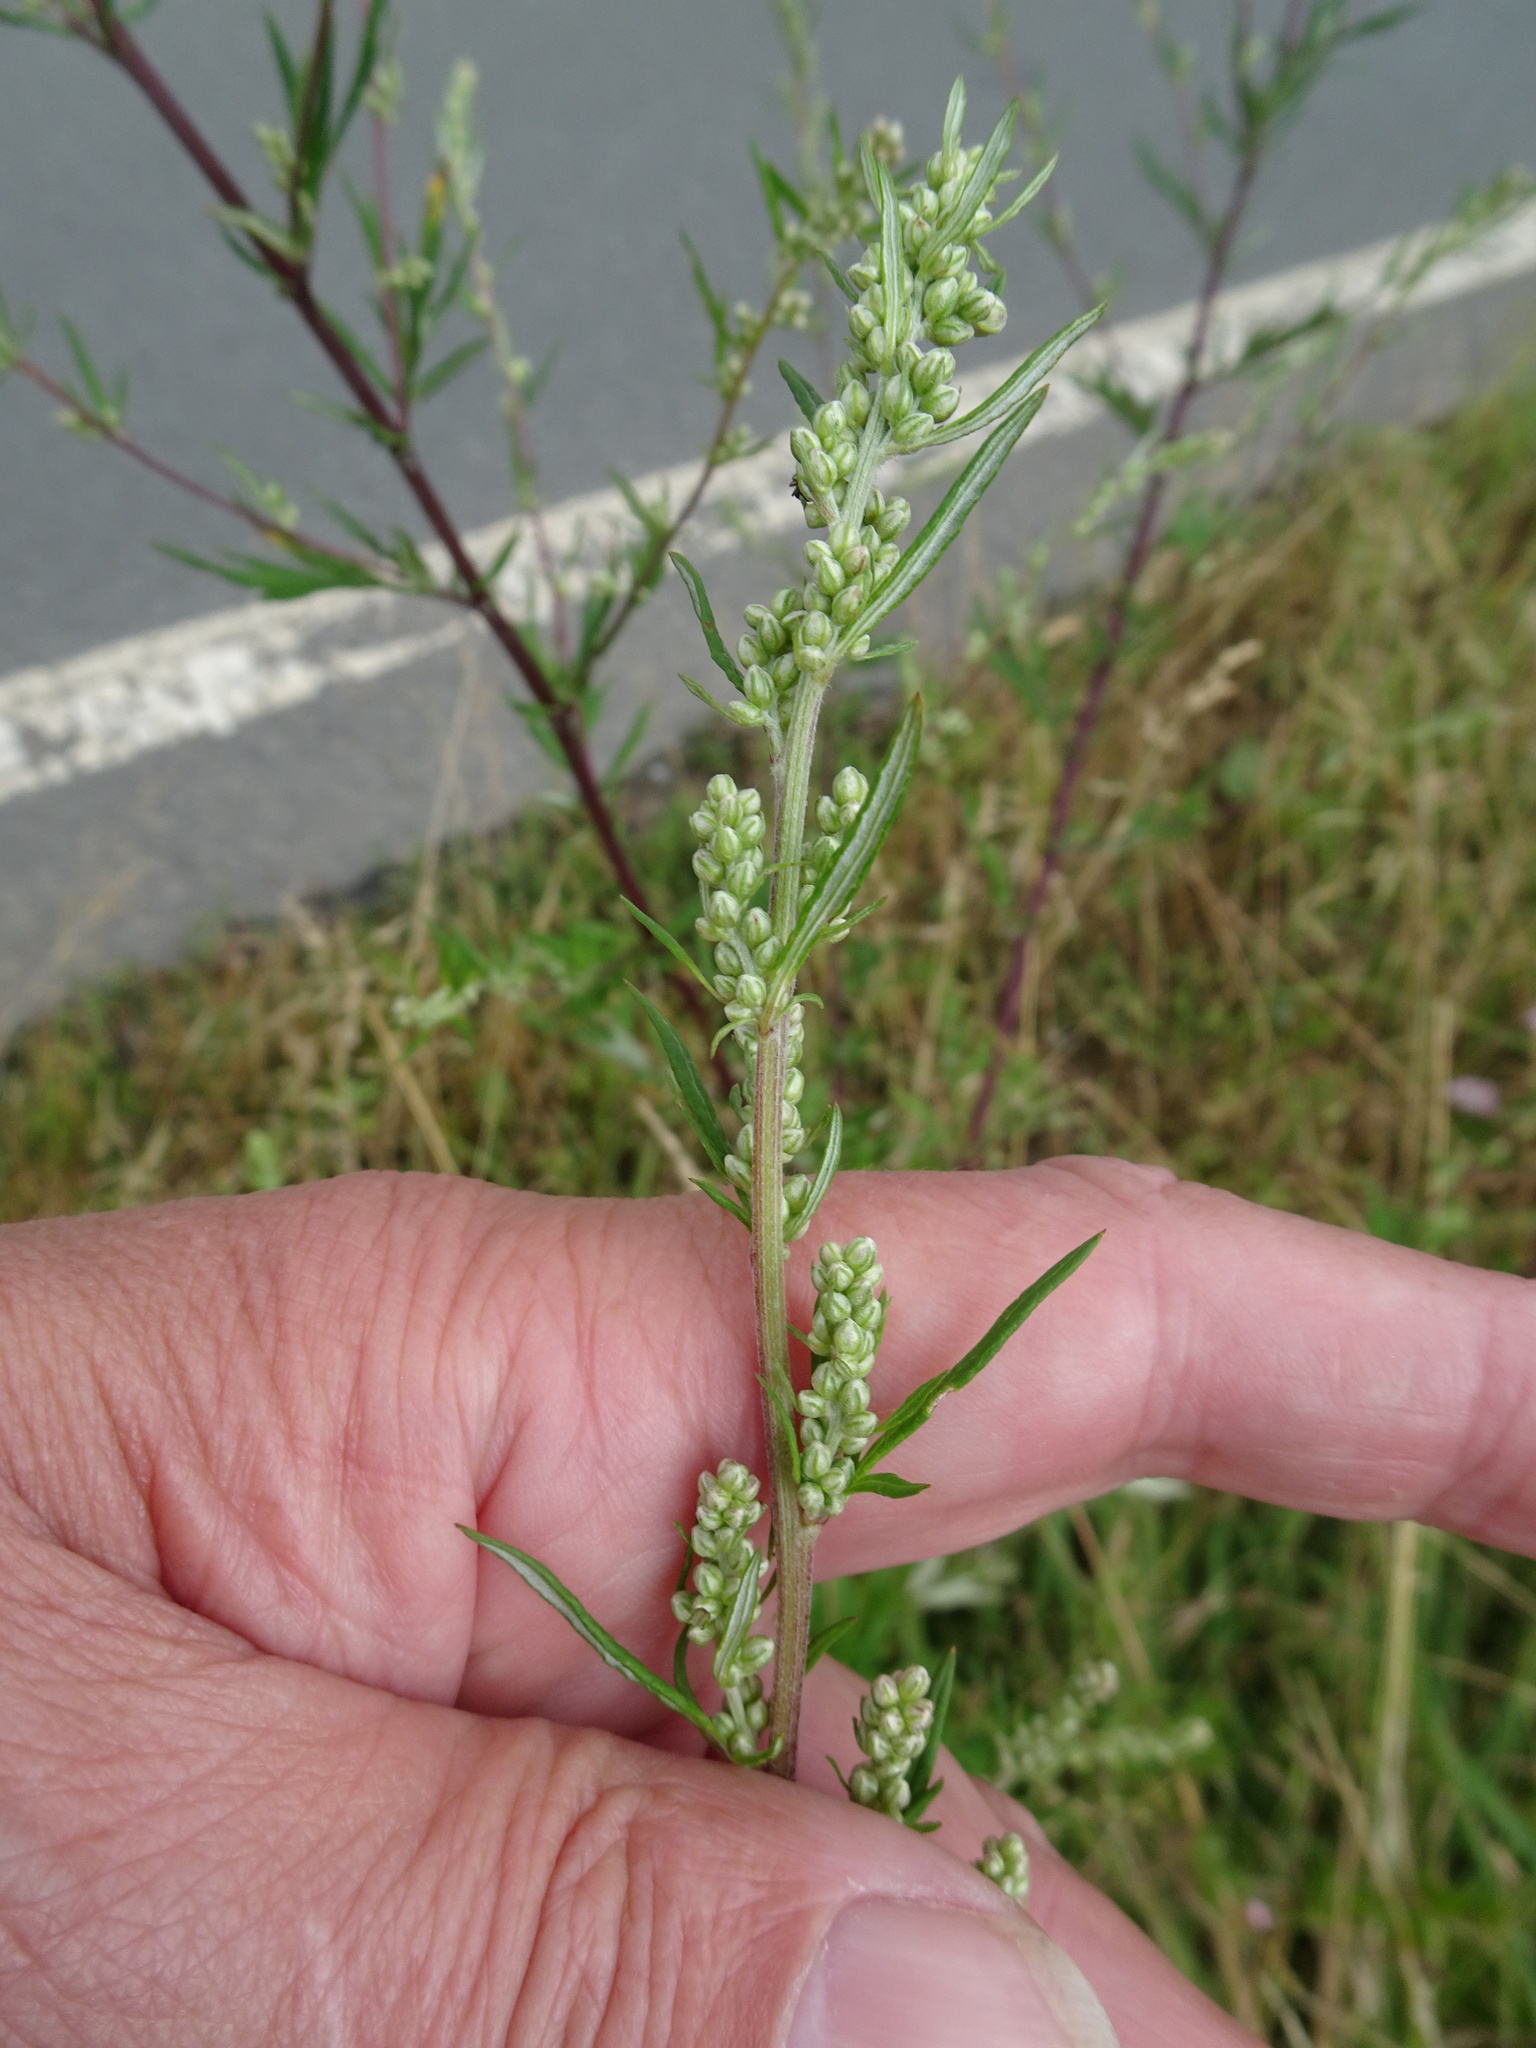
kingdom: Plantae
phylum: Tracheophyta
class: Magnoliopsida
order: Asterales
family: Asteraceae
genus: Artemisia
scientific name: Artemisia vulgaris
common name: Mugwort
